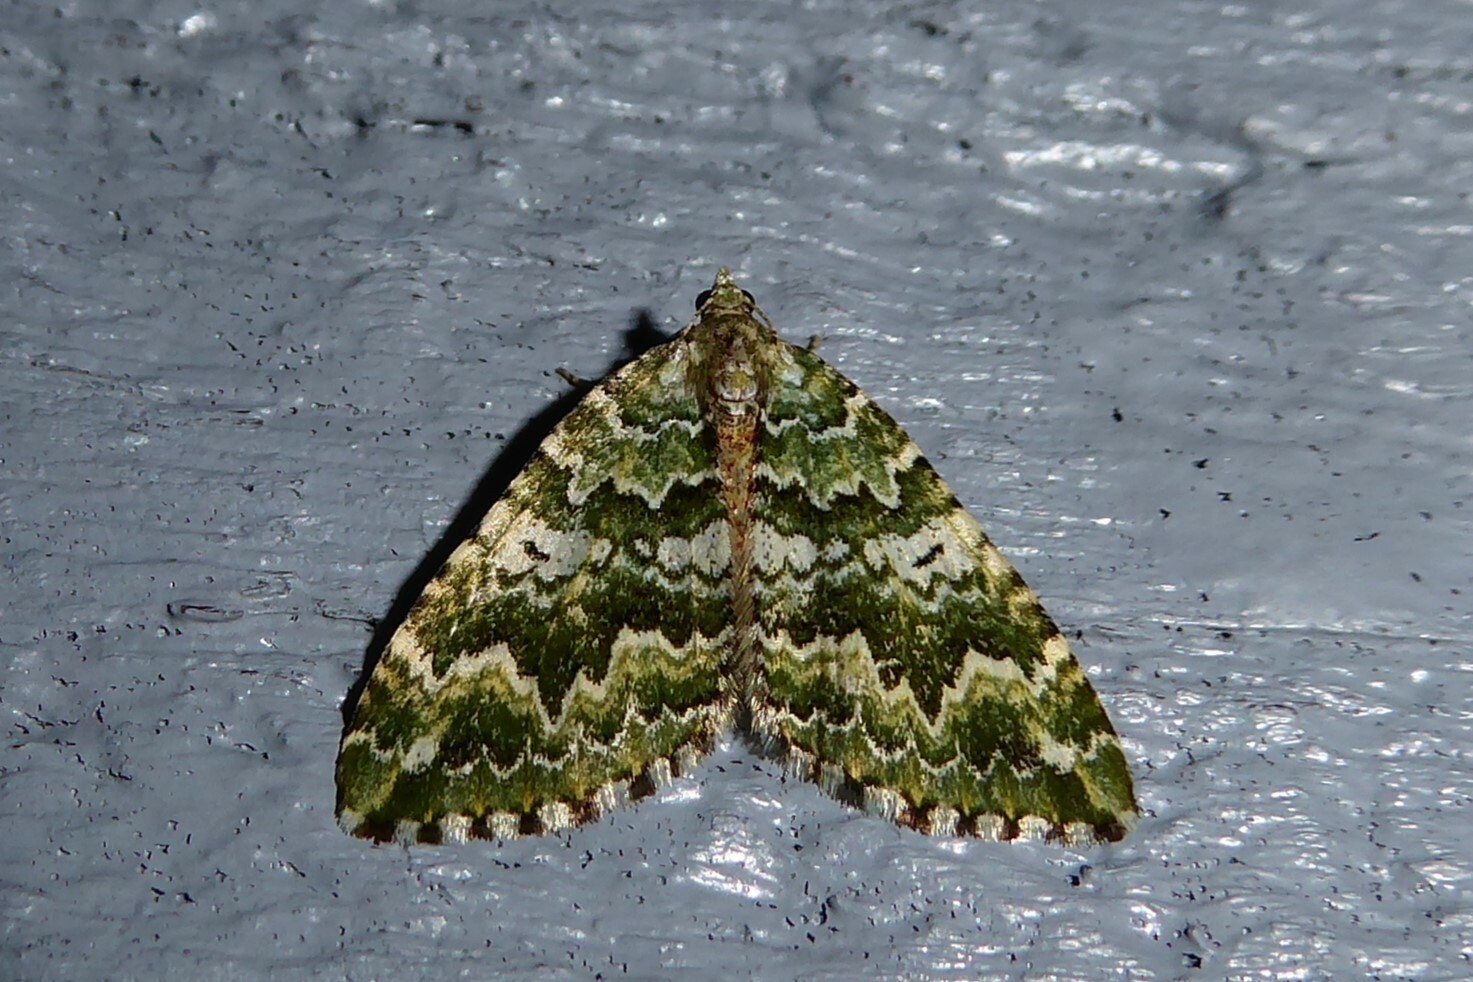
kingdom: Animalia
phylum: Arthropoda
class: Insecta
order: Lepidoptera
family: Geometridae
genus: Asaphodes
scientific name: Asaphodes beata
